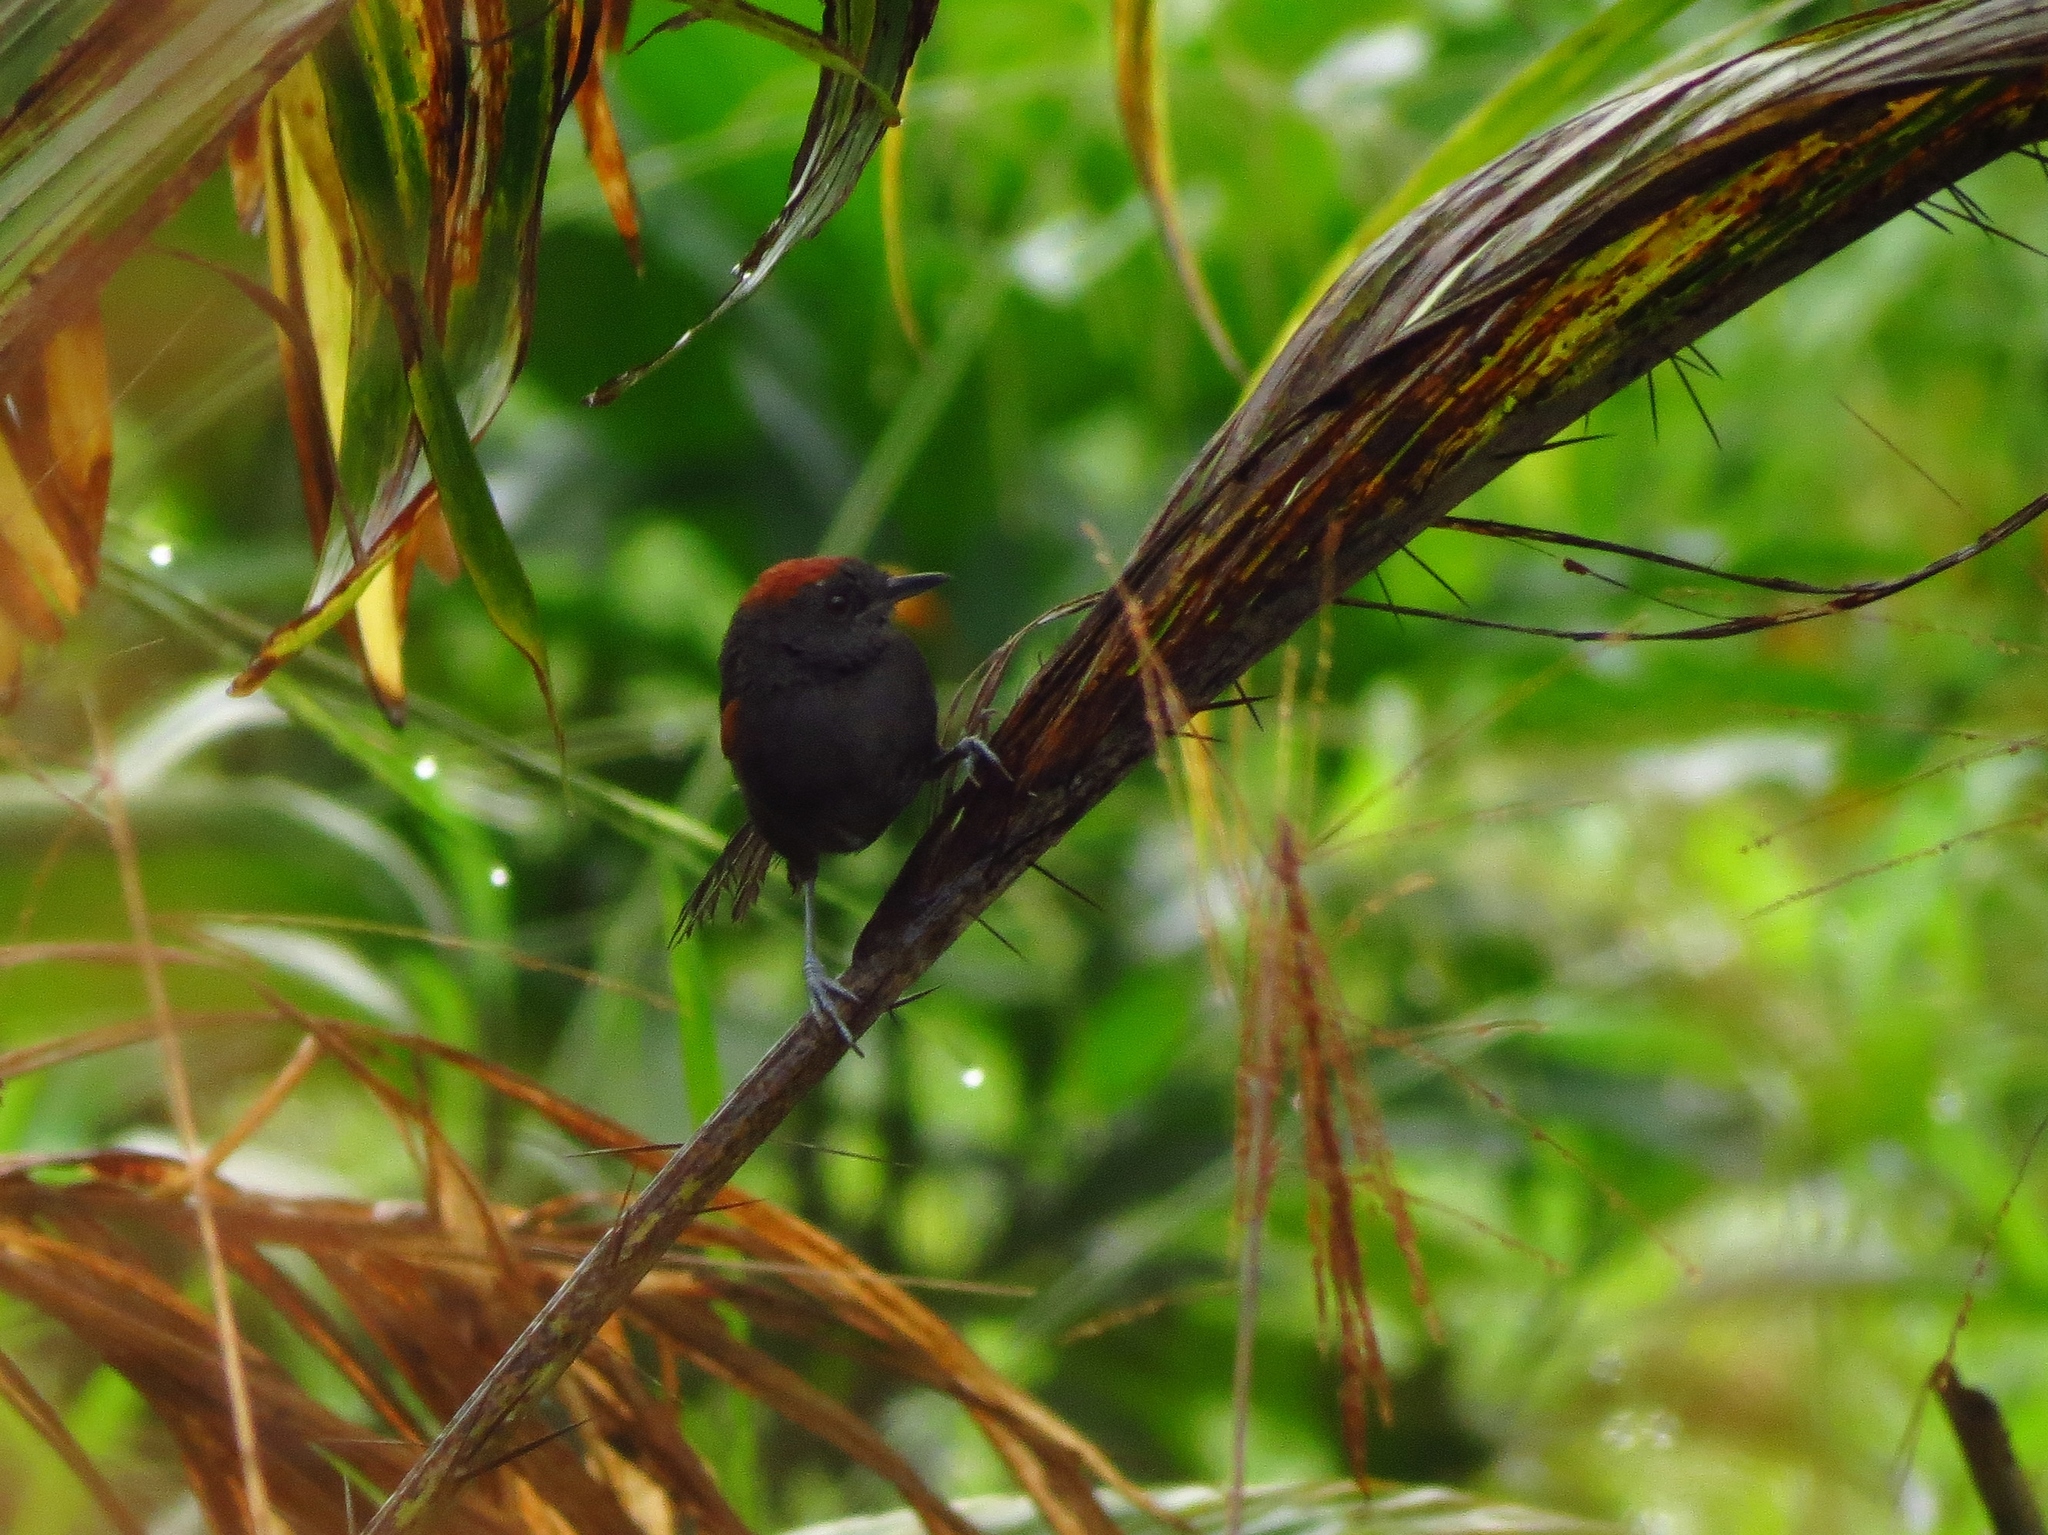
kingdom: Animalia
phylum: Chordata
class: Aves
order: Passeriformes
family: Furnariidae
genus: Synallaxis
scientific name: Synallaxis brachyura
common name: Slaty spinetail
